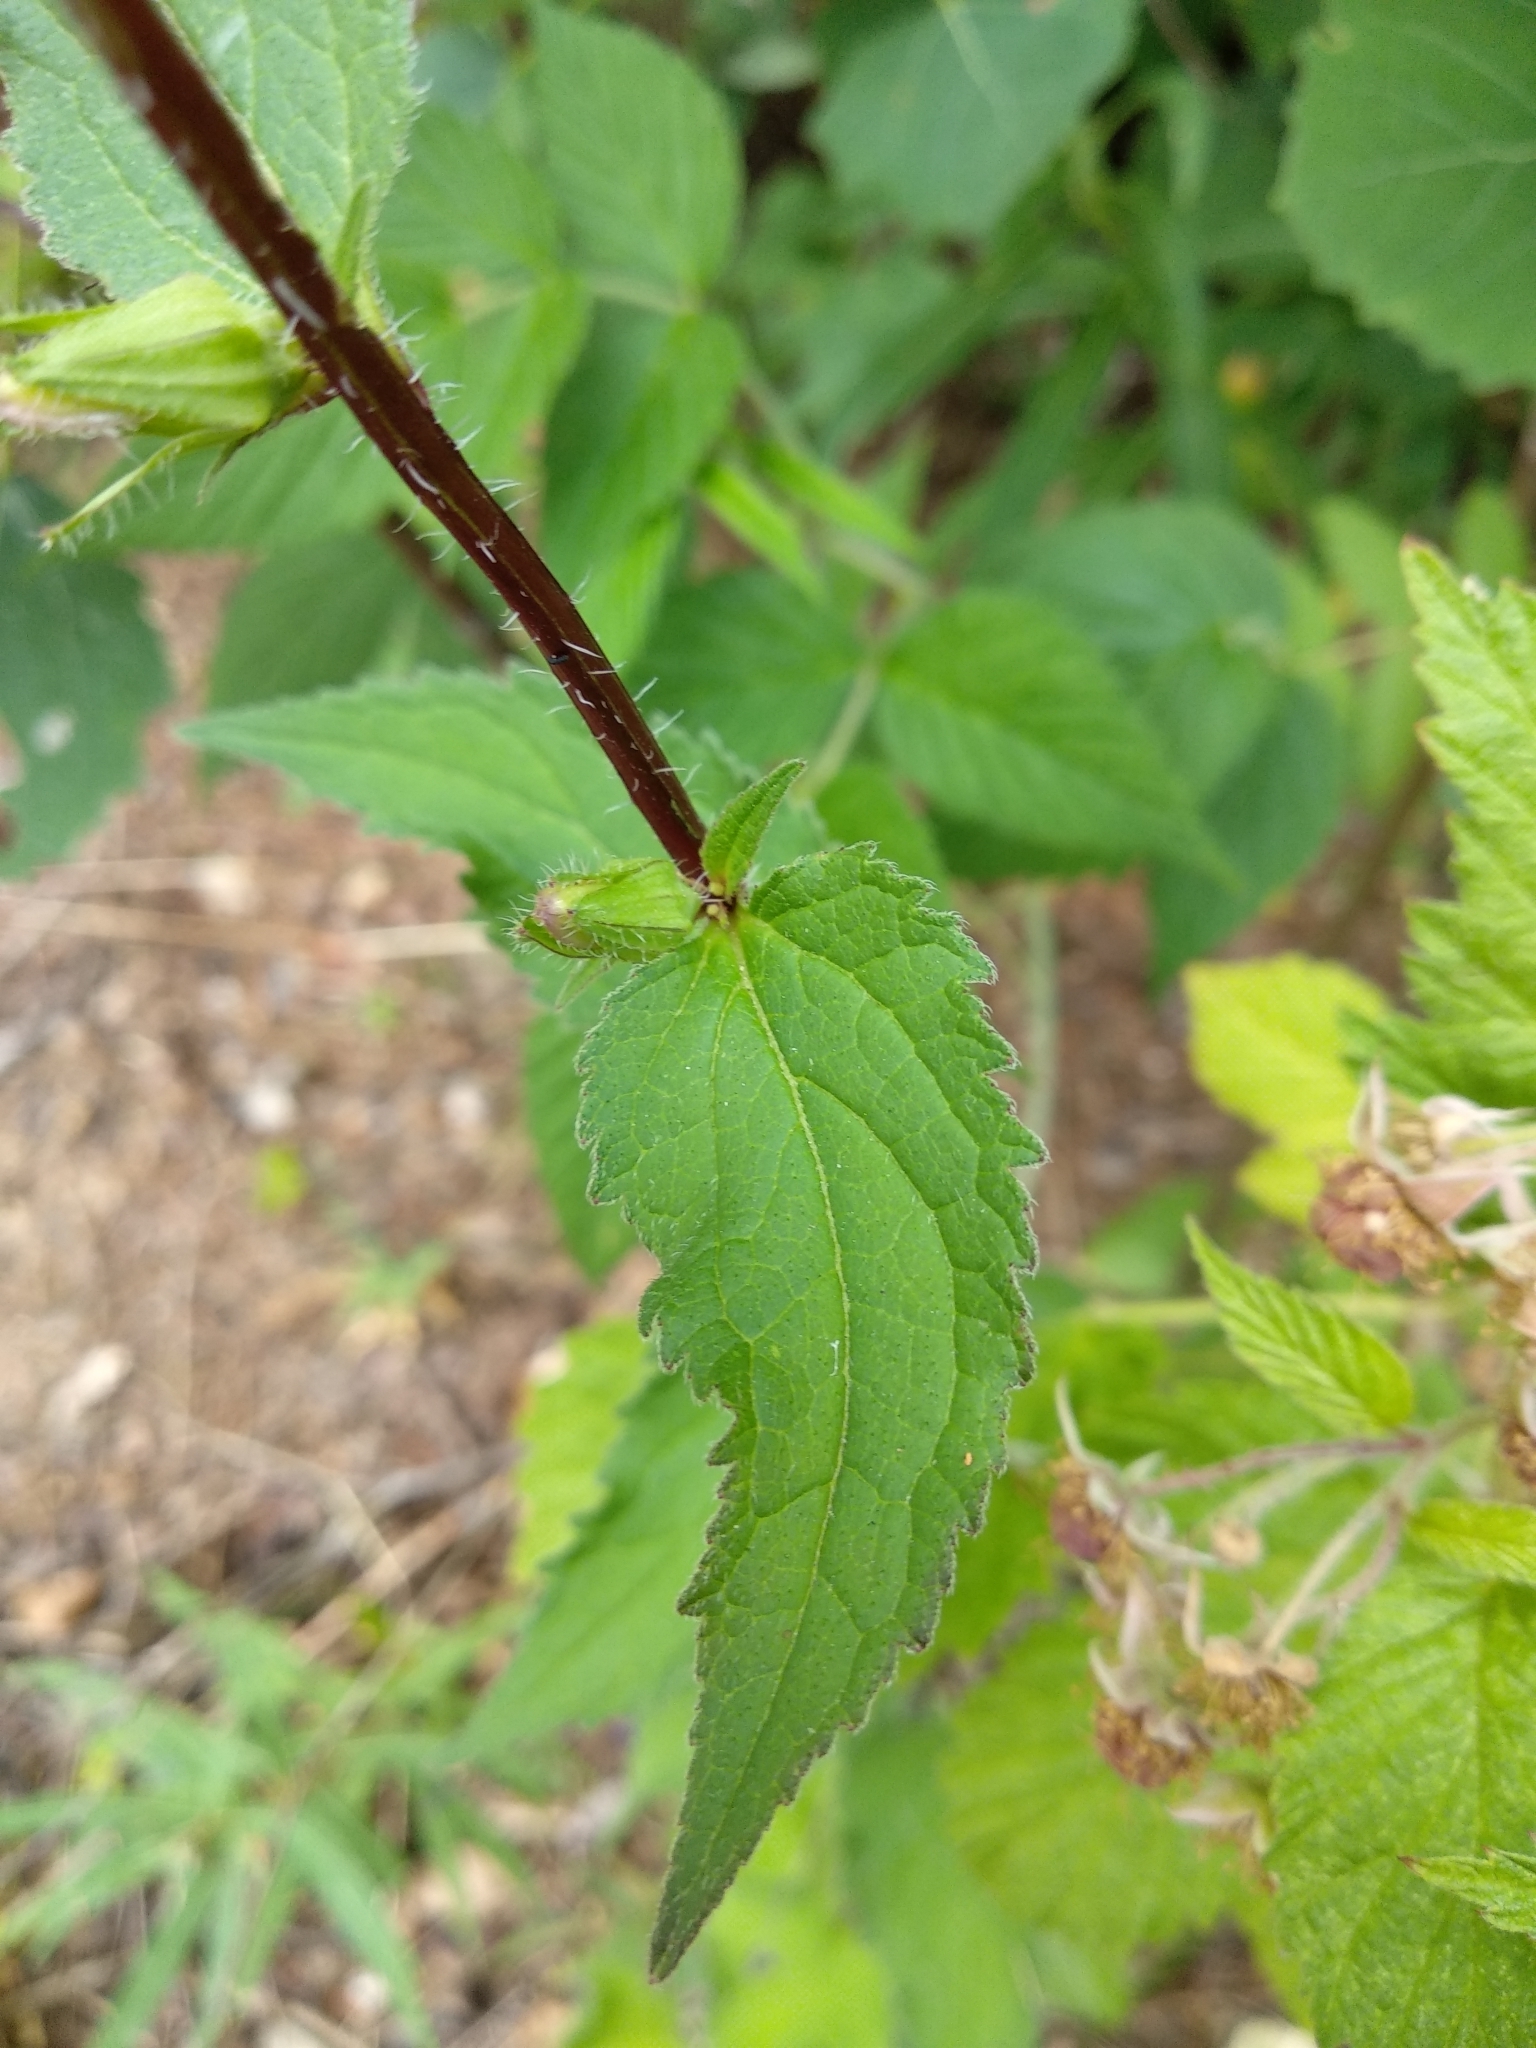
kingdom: Plantae
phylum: Tracheophyta
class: Magnoliopsida
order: Asterales
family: Campanulaceae
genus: Campanula
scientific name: Campanula trachelium
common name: Nettle-leaved bellflower
